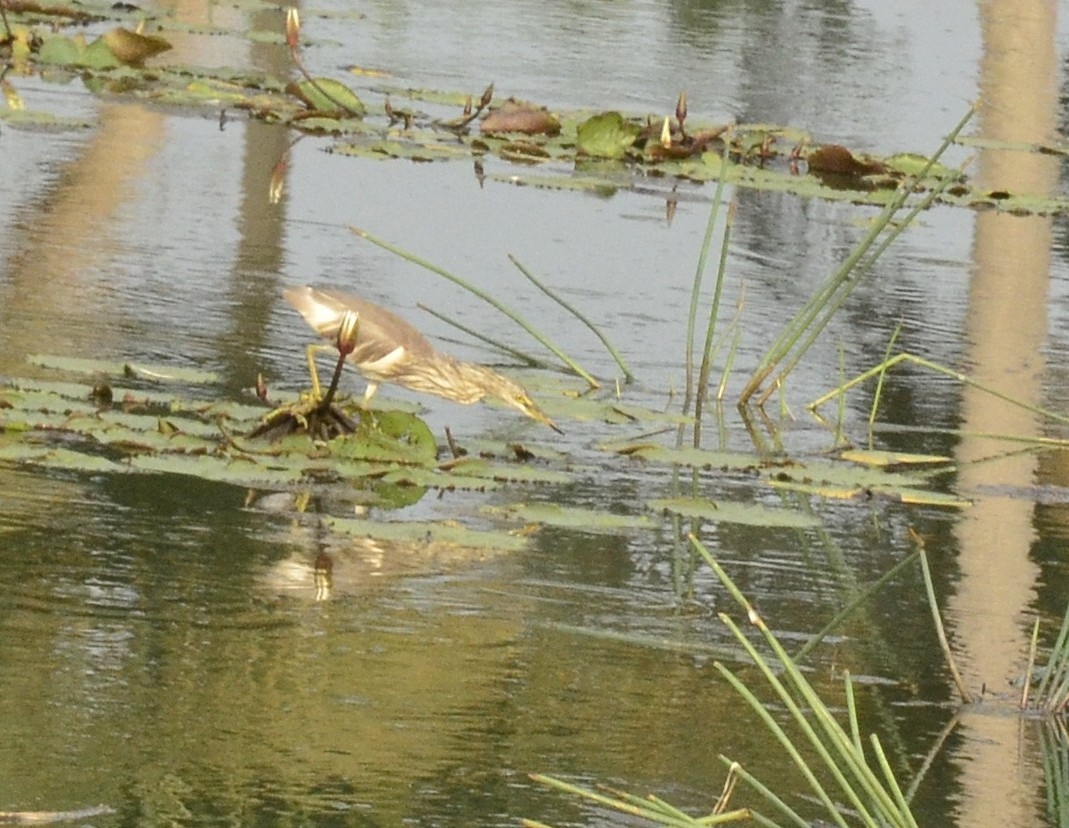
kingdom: Animalia
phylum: Chordata
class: Aves
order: Pelecaniformes
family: Ardeidae
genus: Ardeola
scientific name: Ardeola grayii
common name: Indian pond heron
